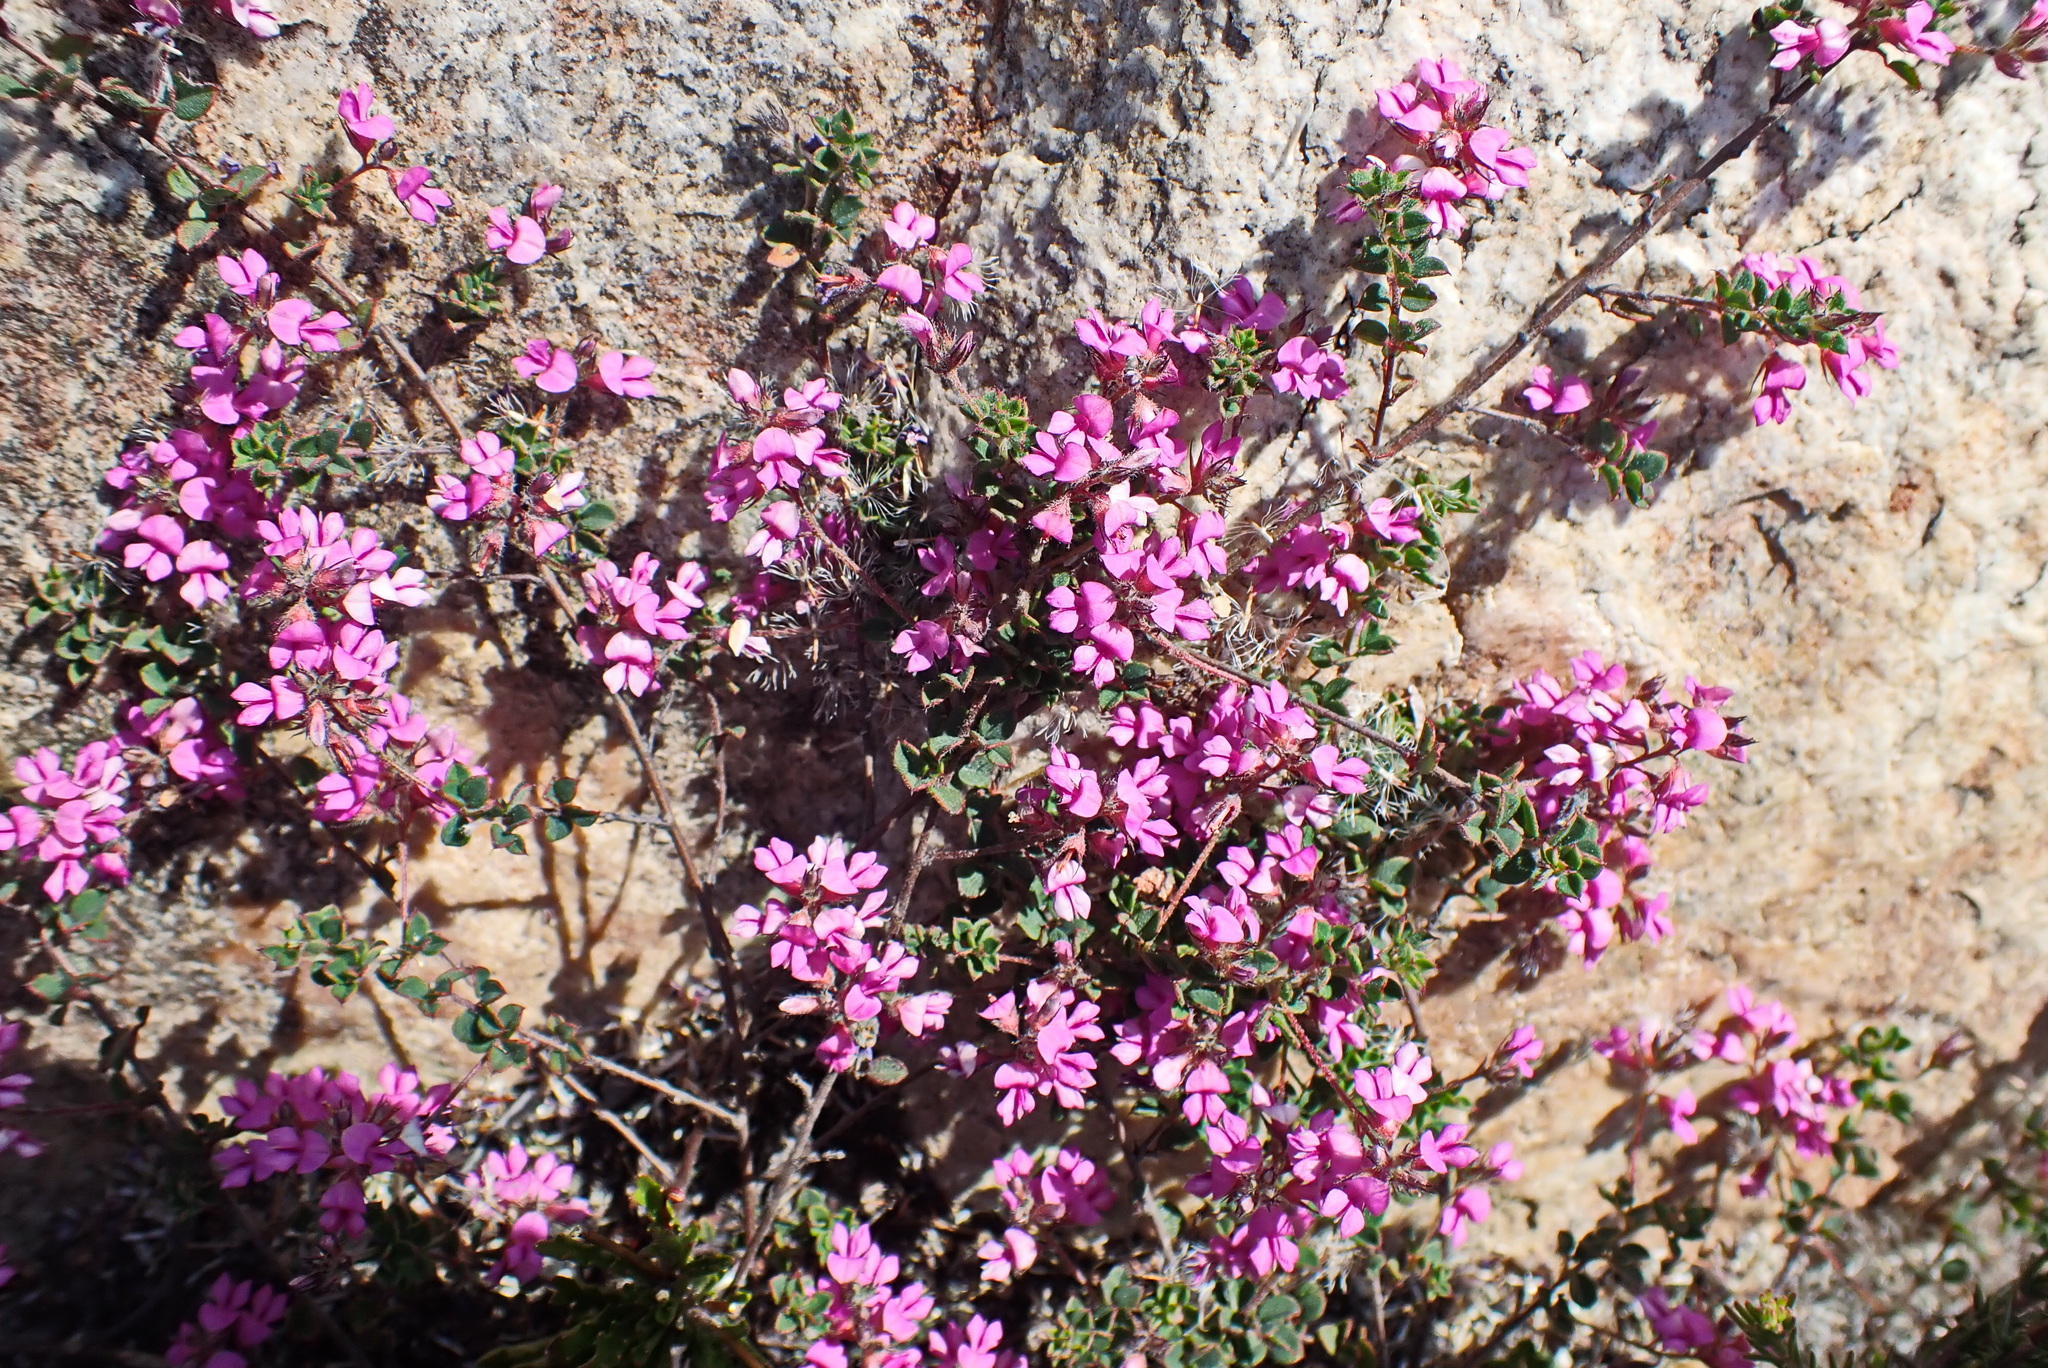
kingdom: Plantae
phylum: Tracheophyta
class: Magnoliopsida
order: Fabales
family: Fabaceae
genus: Indigofera
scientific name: Indigofera alopecuroides
